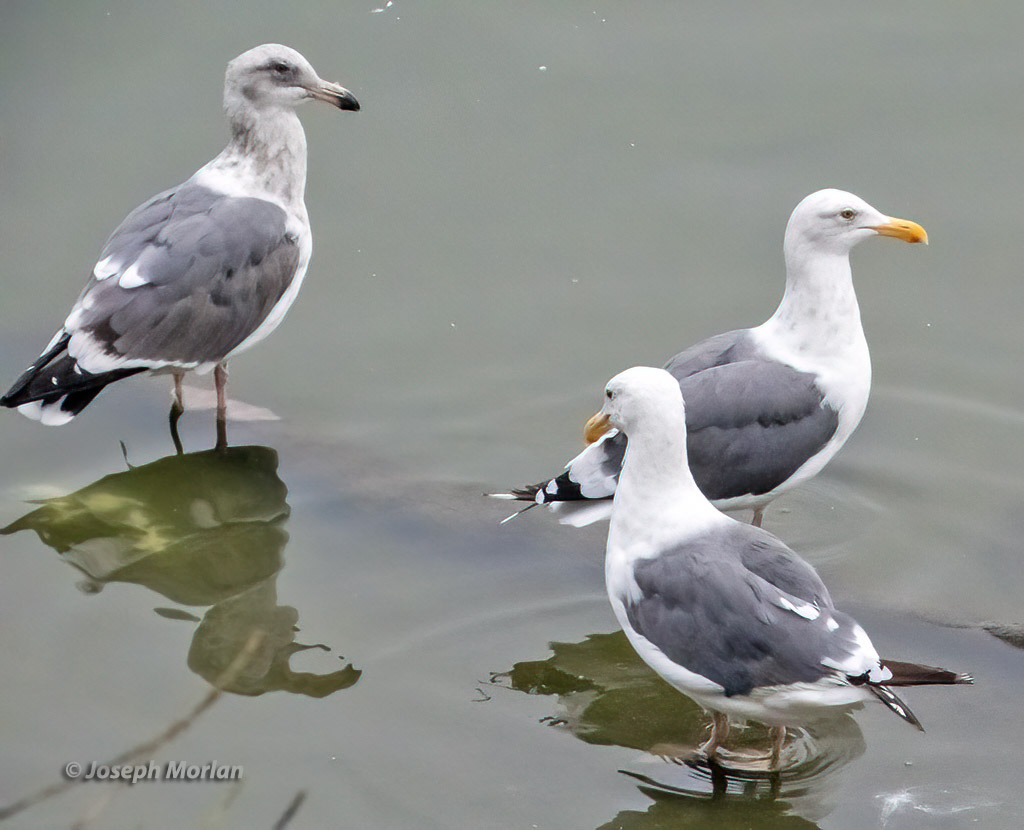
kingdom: Animalia
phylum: Chordata
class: Aves
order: Charadriiformes
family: Laridae
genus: Larus
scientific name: Larus occidentalis
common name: Western gull
